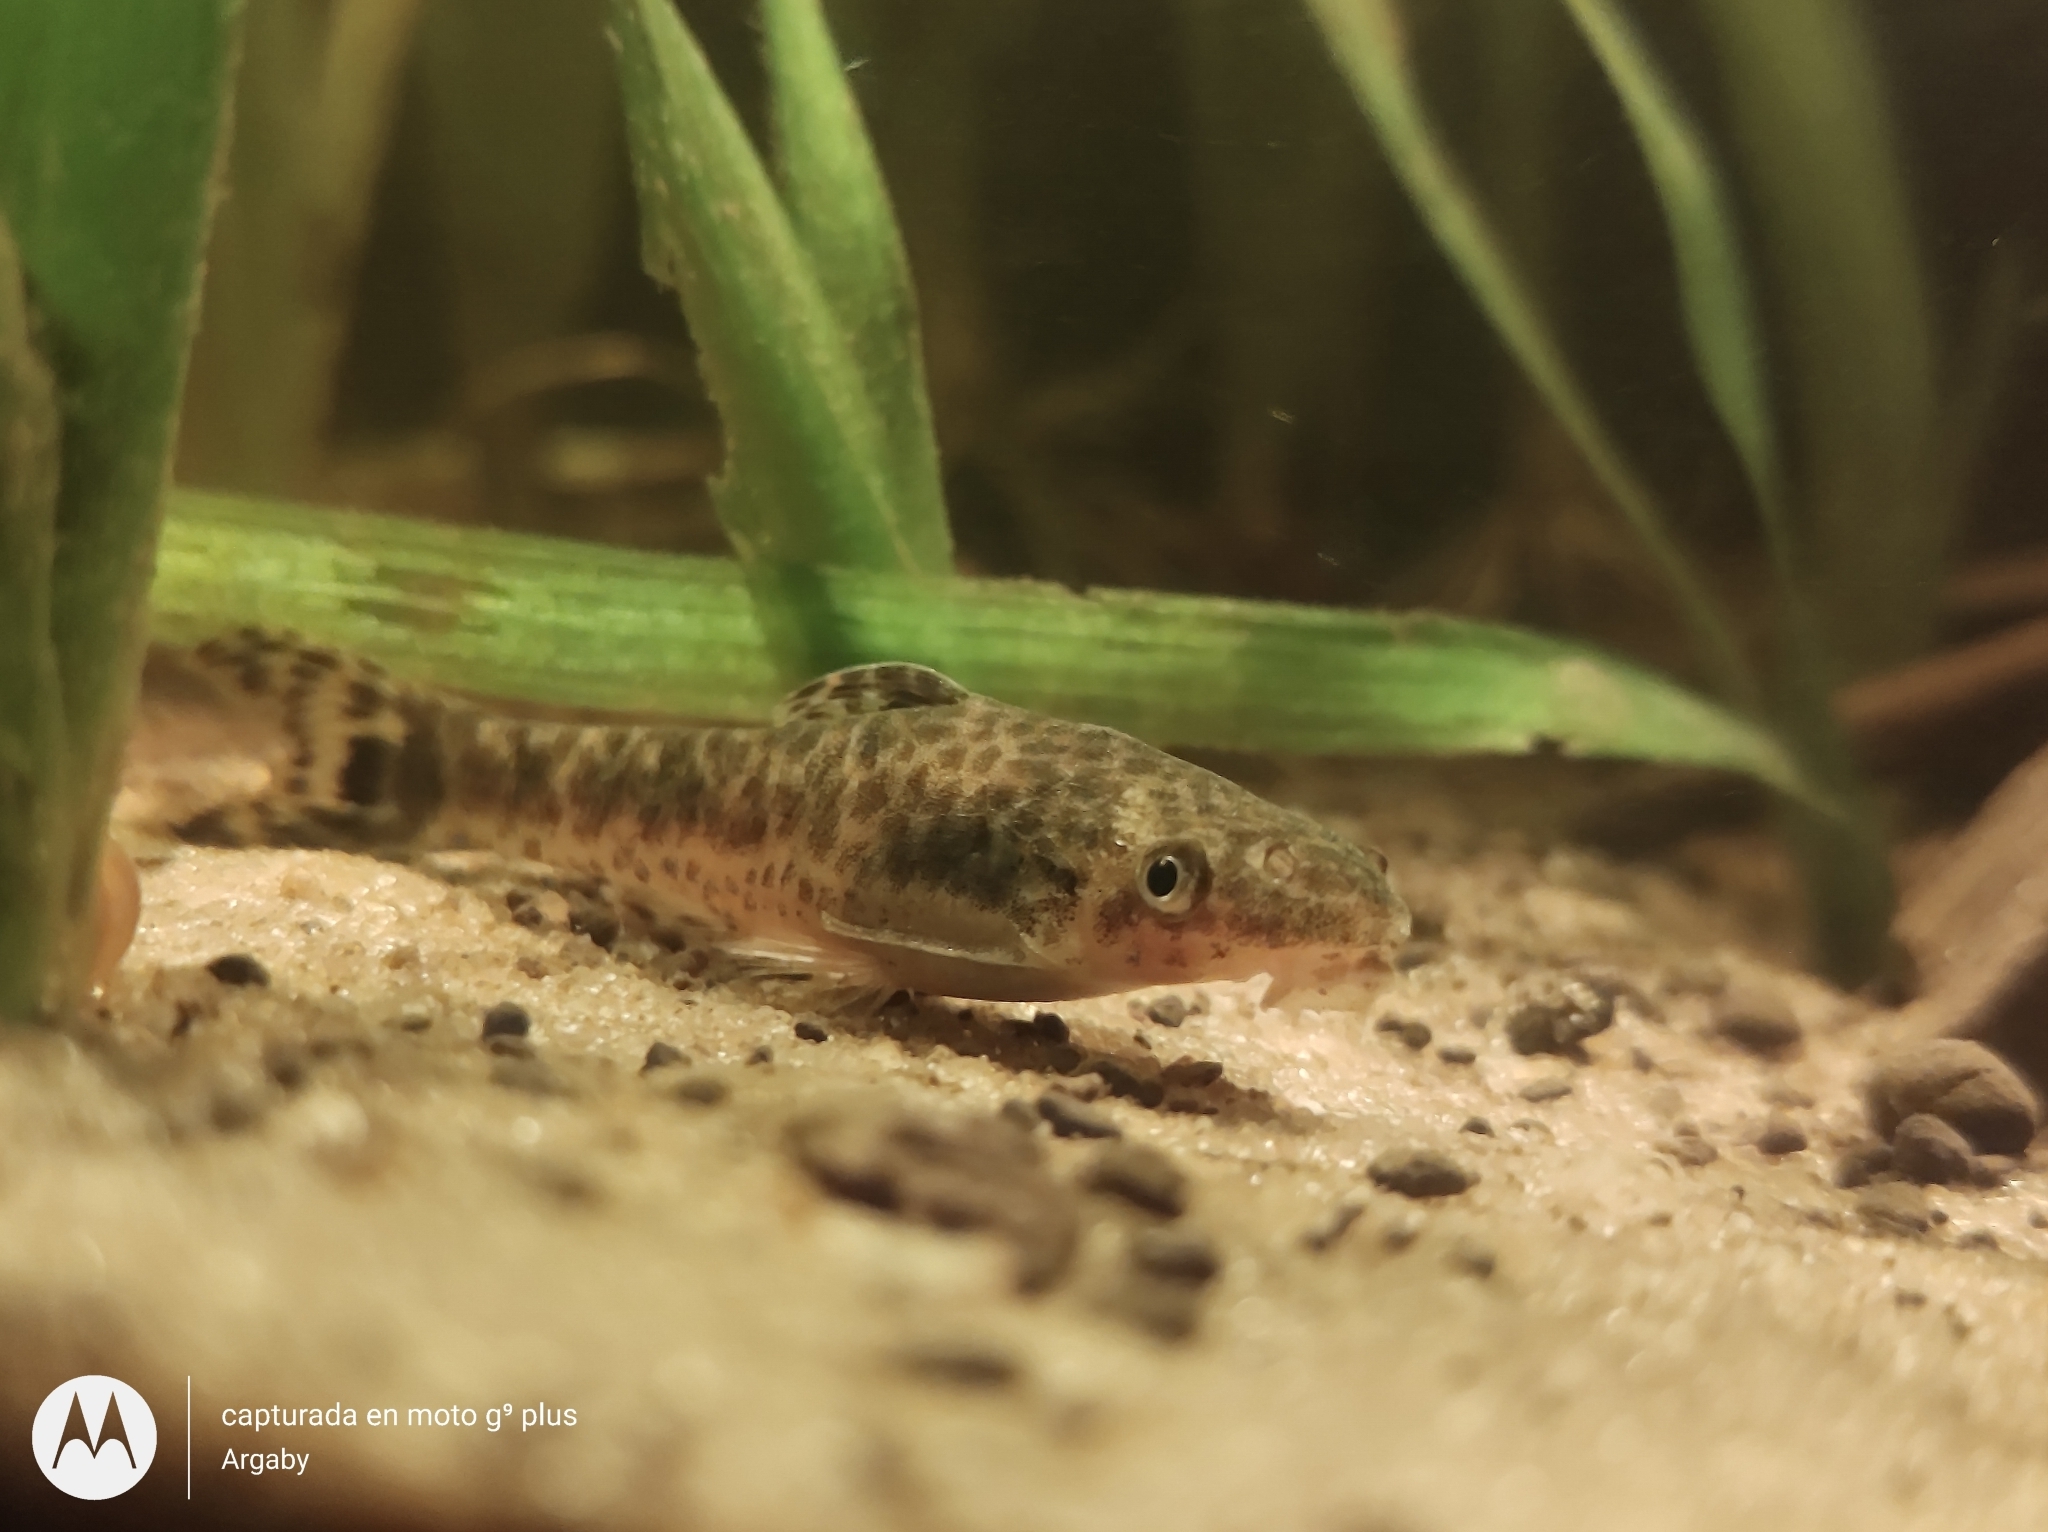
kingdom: Animalia
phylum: Chordata
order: Siluriformes
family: Loricariidae
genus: Otocinclus
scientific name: Otocinclus arnoldi
